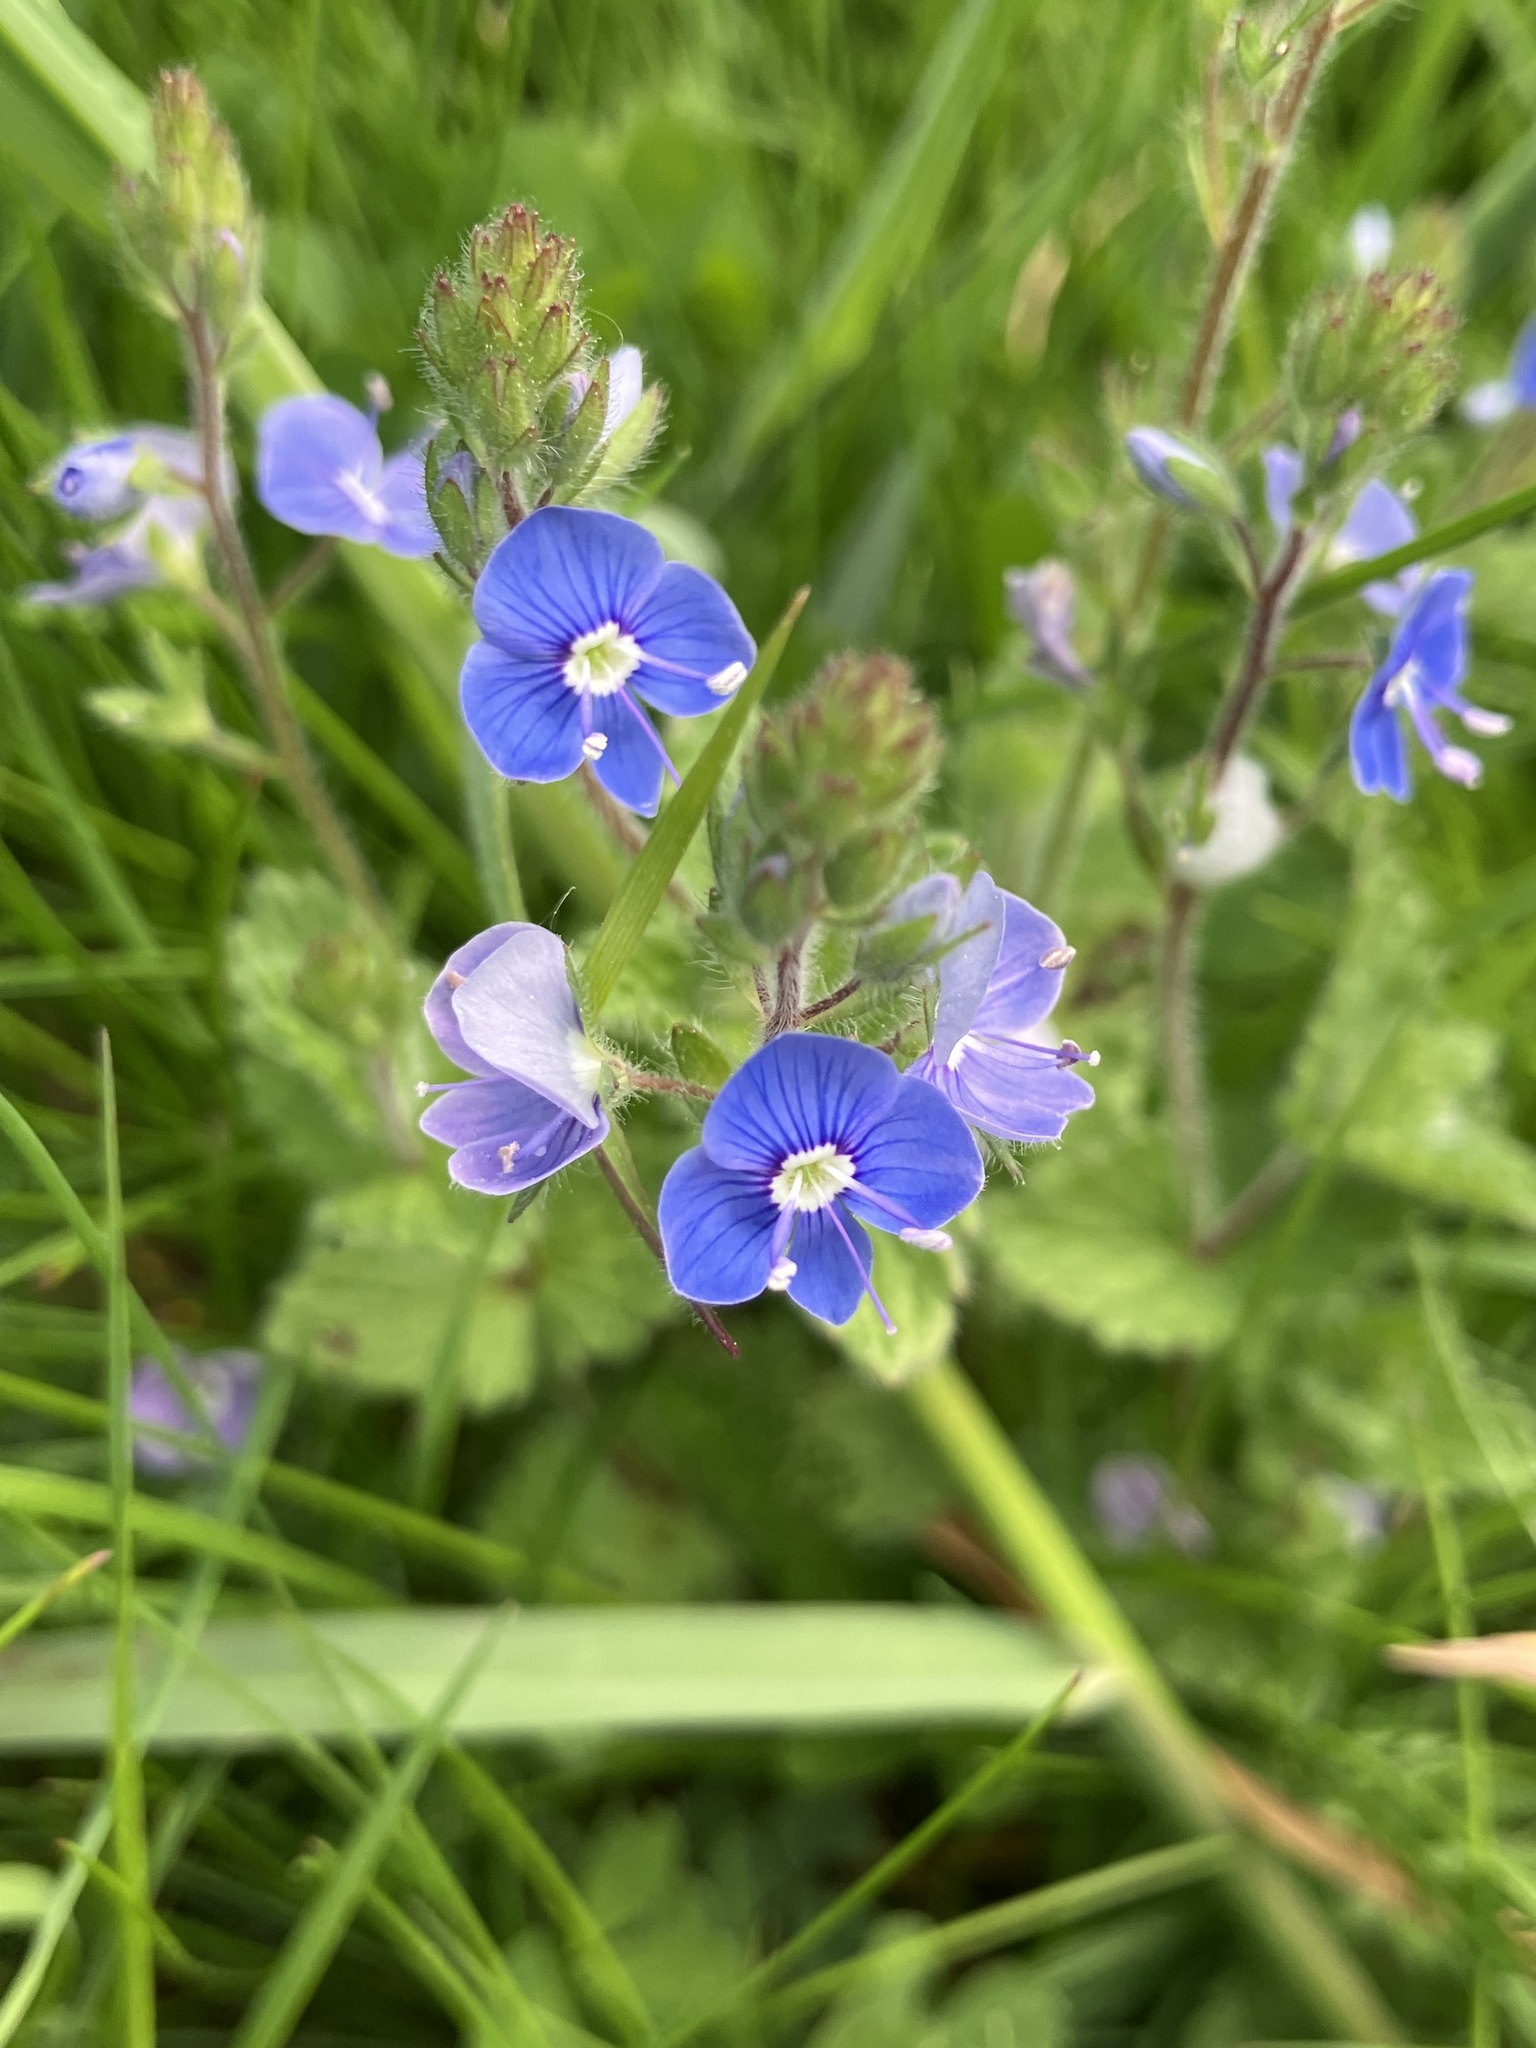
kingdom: Plantae
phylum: Tracheophyta
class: Magnoliopsida
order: Lamiales
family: Plantaginaceae
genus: Veronica
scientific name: Veronica chamaedrys
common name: Germander speedwell
